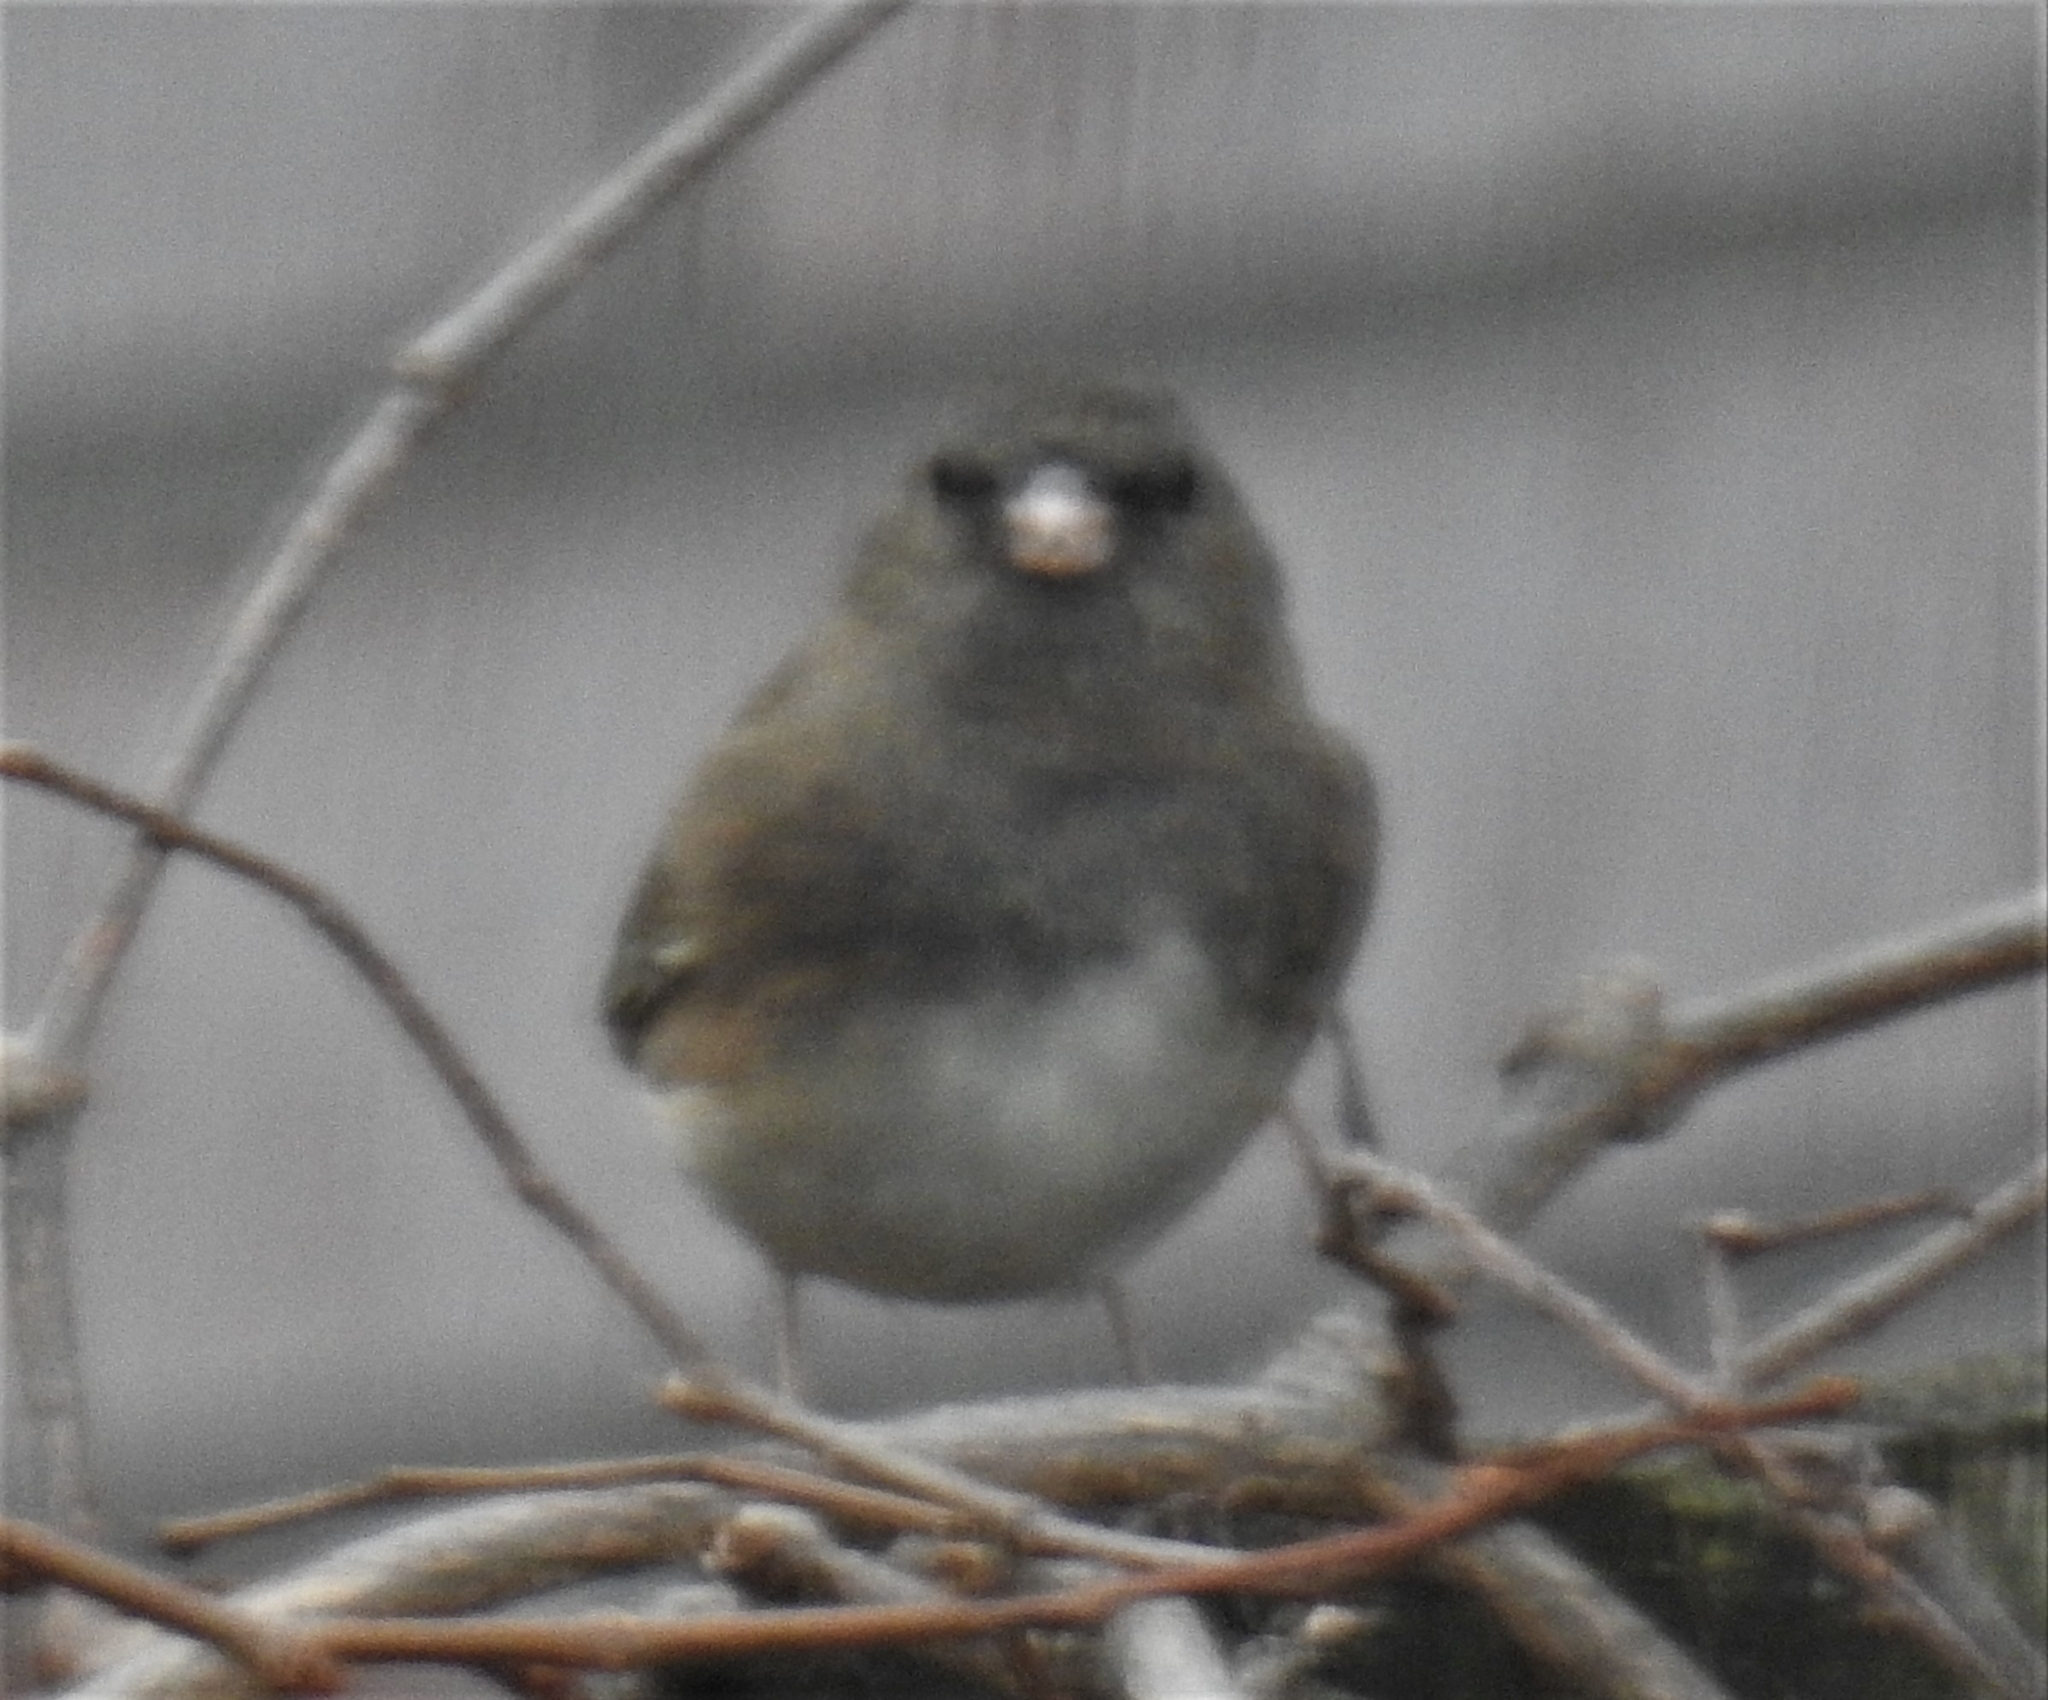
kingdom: Animalia
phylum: Chordata
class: Aves
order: Passeriformes
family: Passerellidae
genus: Junco
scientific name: Junco hyemalis
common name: Dark-eyed junco
